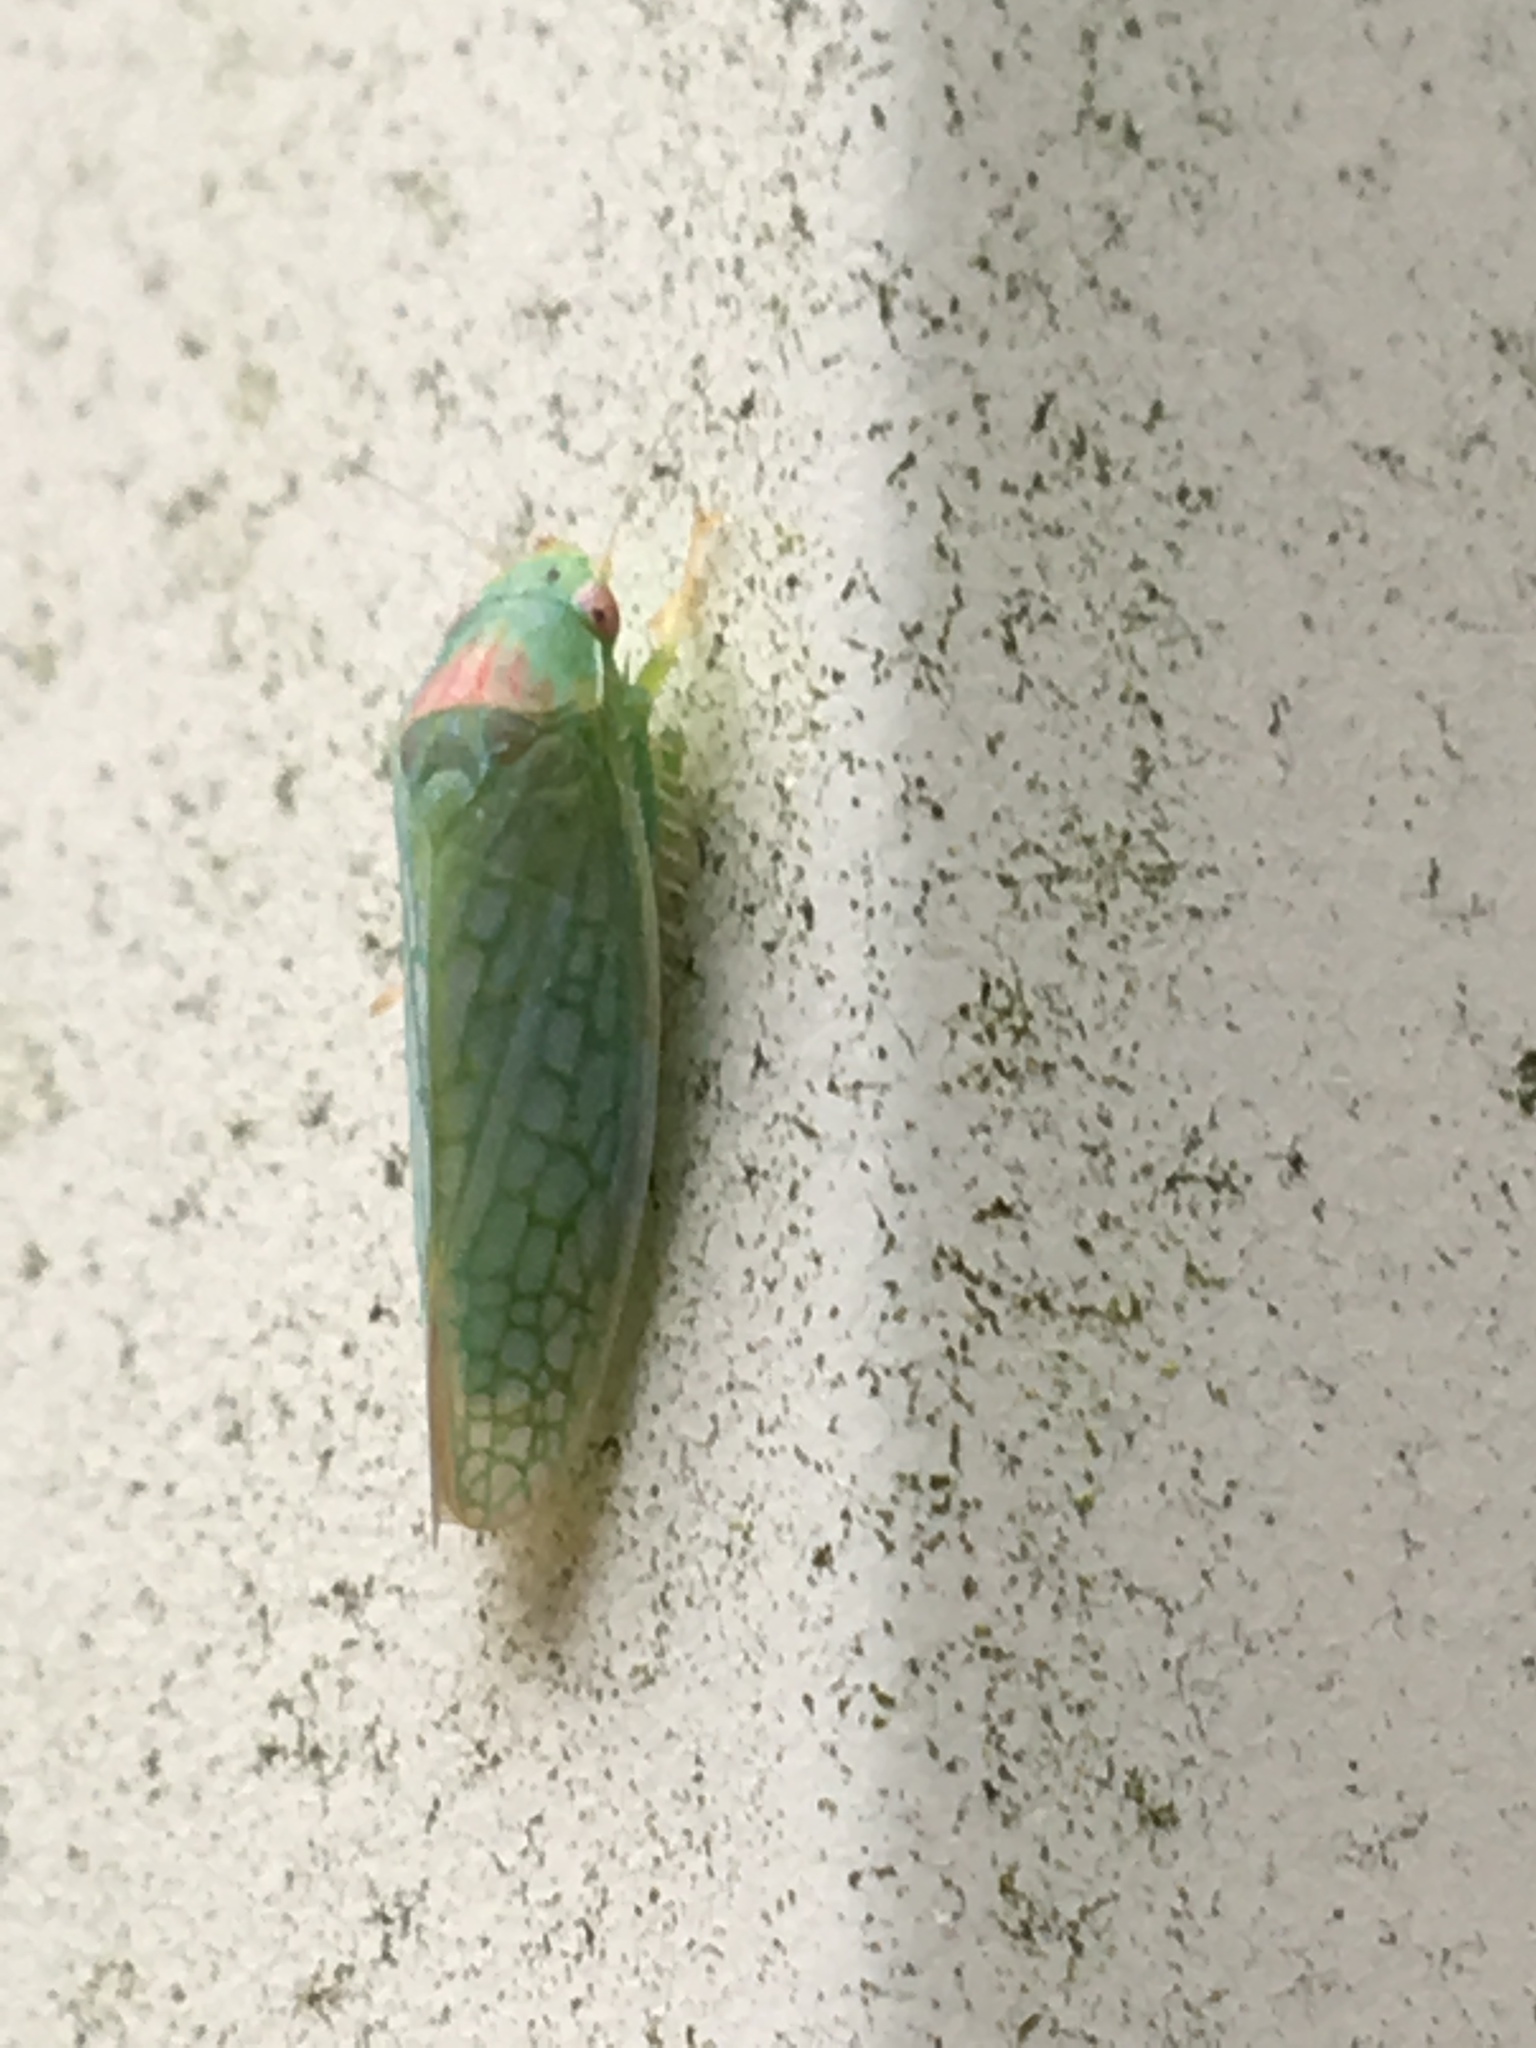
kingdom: Animalia
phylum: Arthropoda
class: Insecta
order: Hemiptera
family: Cicadellidae
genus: Gyponana
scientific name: Gyponana octolineata
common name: Eight-lined leafhopper
